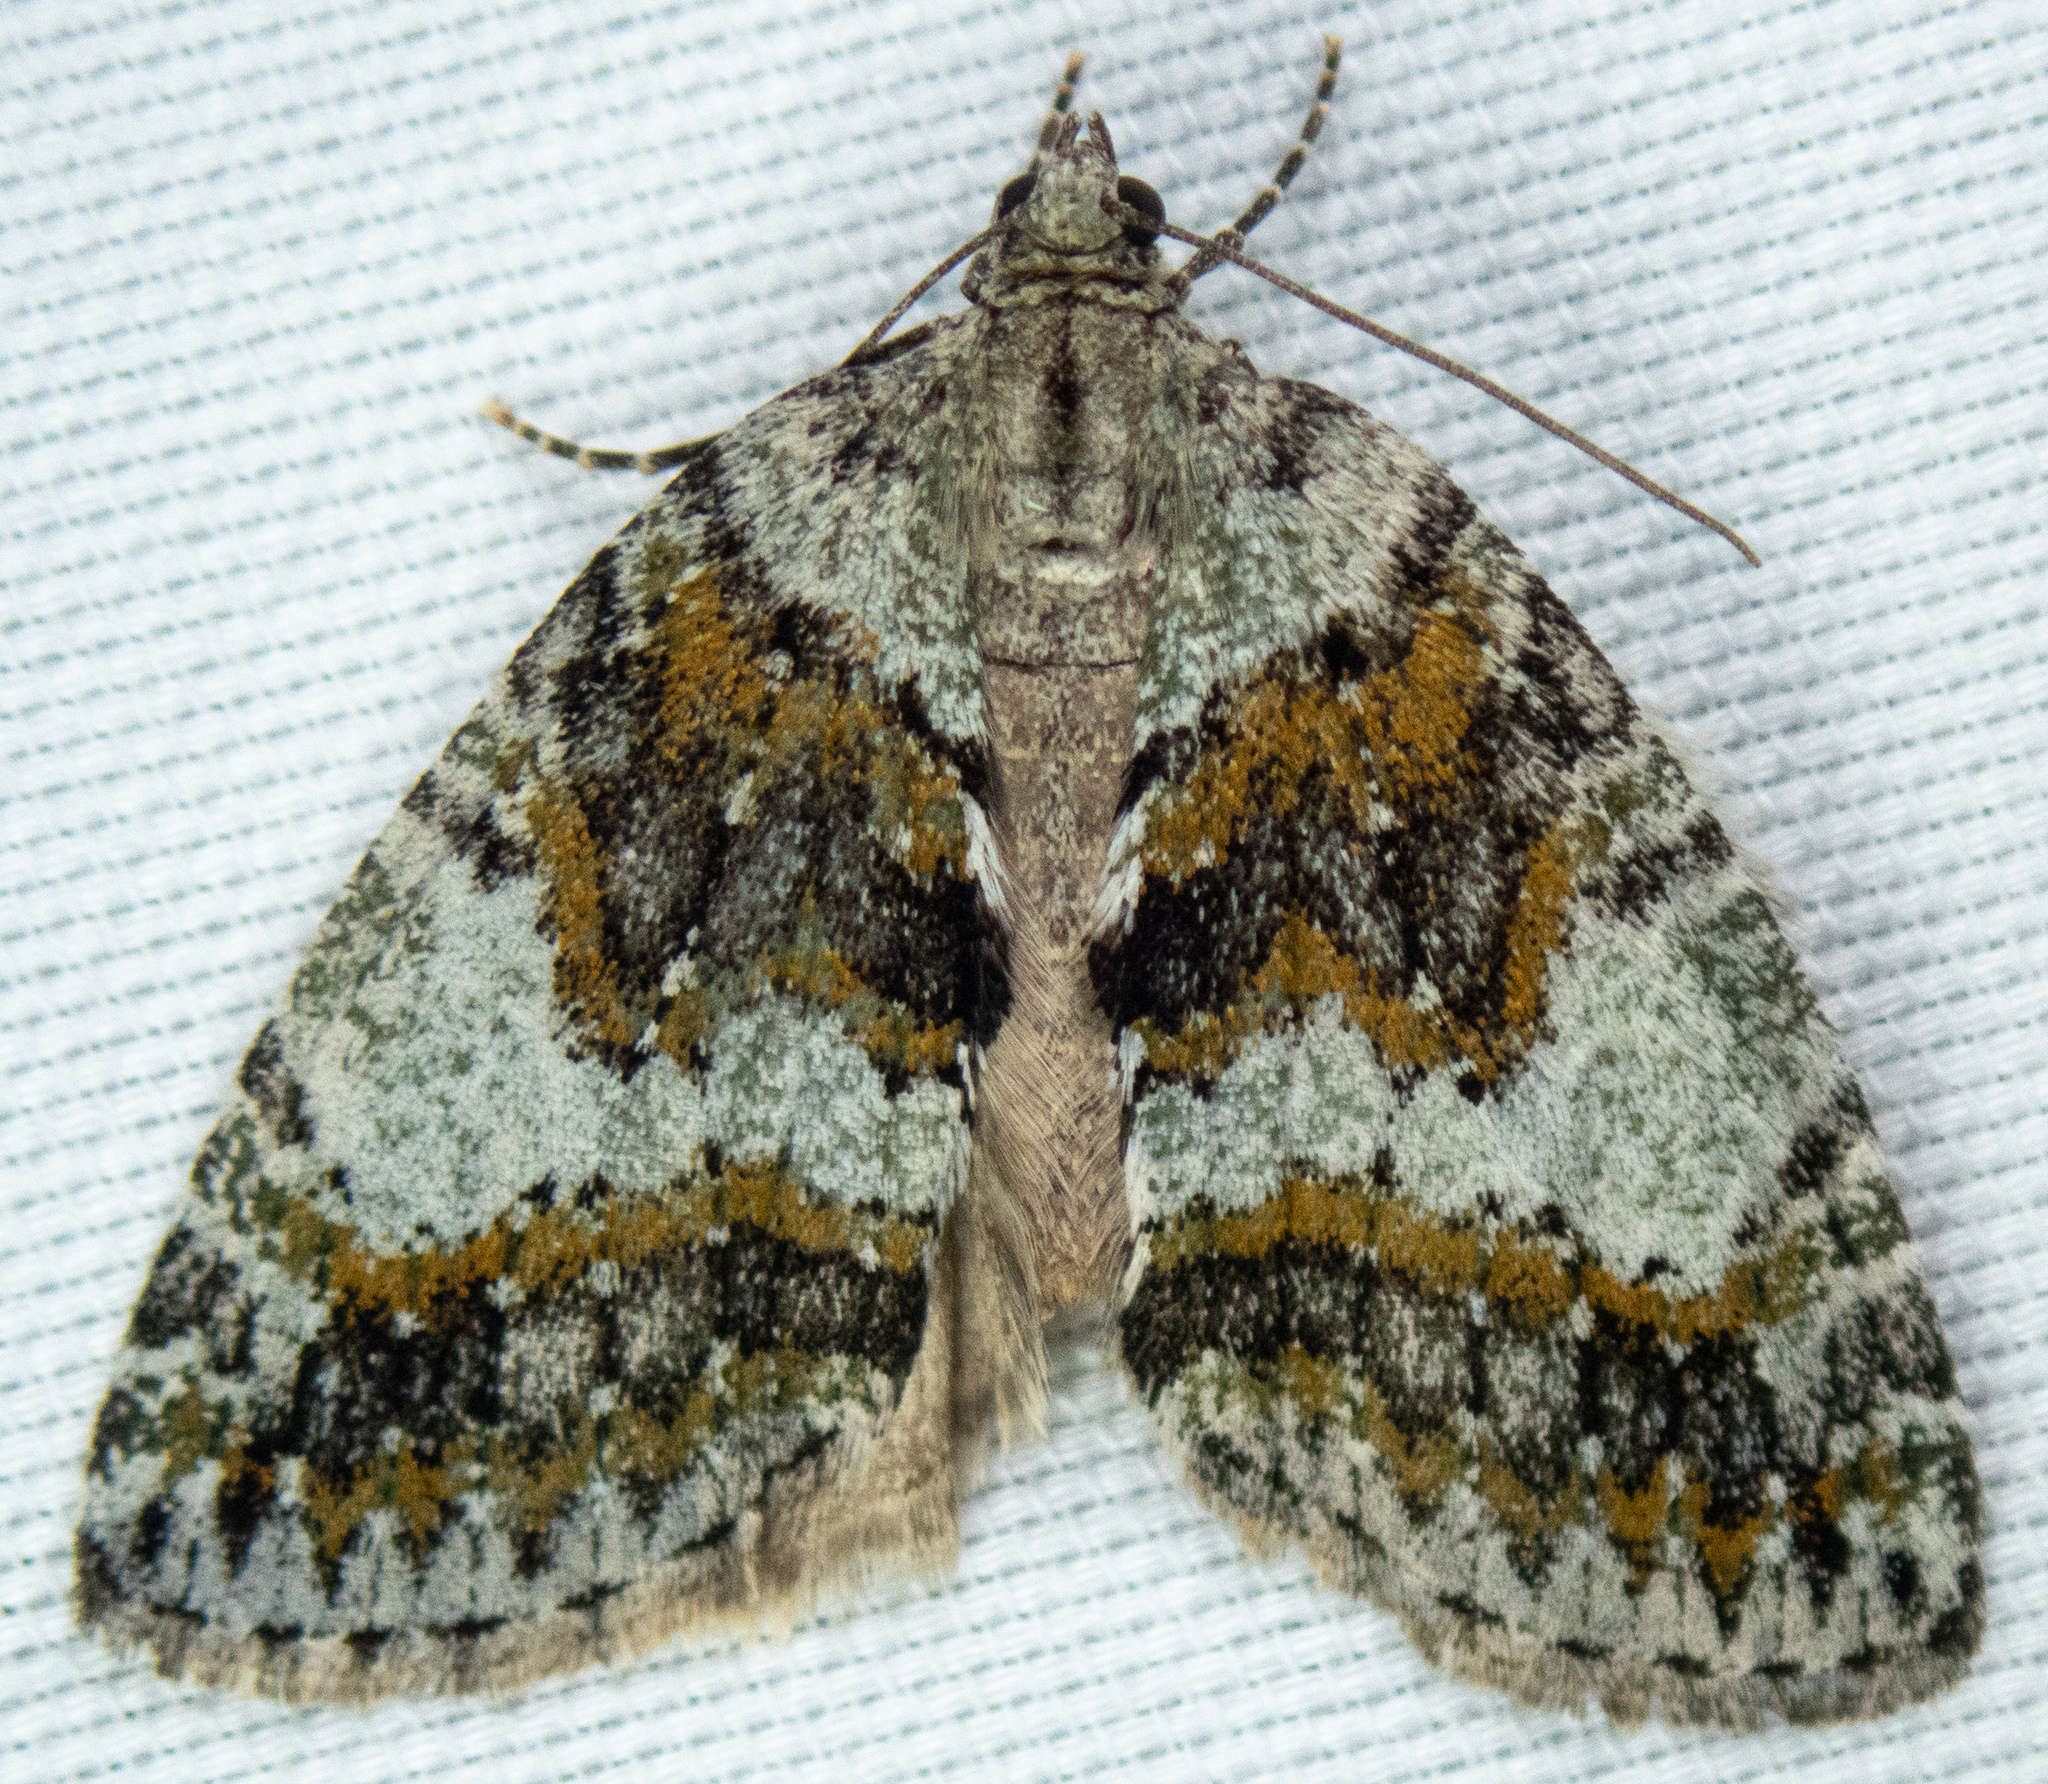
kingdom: Animalia
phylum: Arthropoda
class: Insecta
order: Lepidoptera
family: Geometridae
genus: Hydriomena
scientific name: Hydriomena nubilofasciata
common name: Oak winter highflier moth
